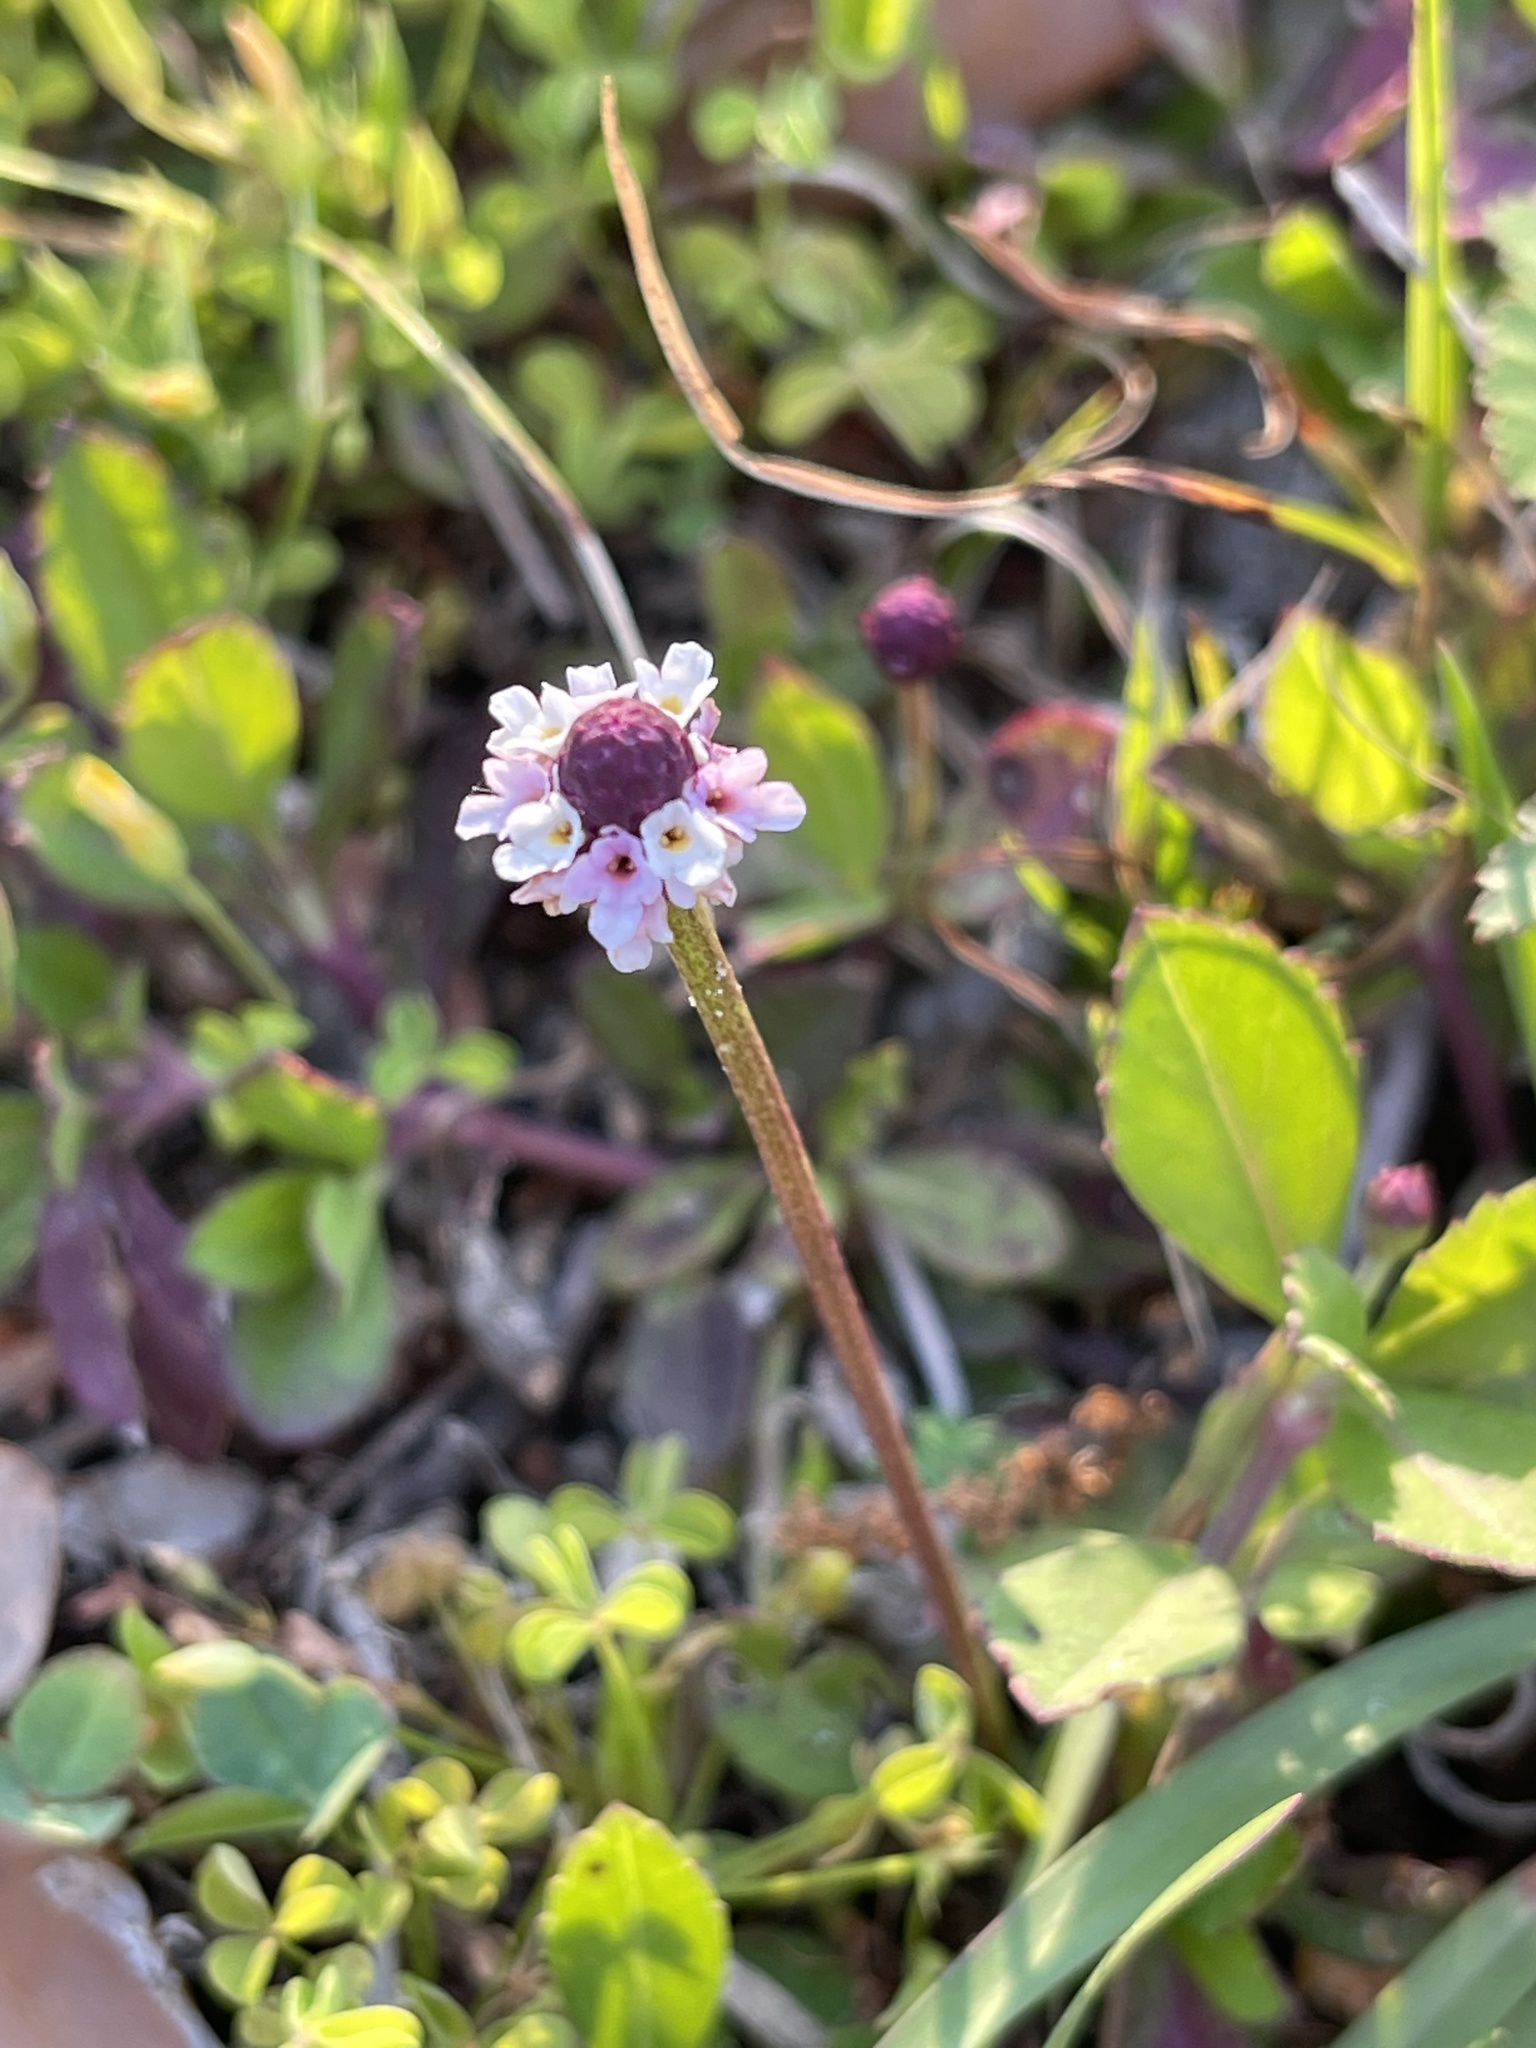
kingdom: Plantae
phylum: Tracheophyta
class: Magnoliopsida
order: Lamiales
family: Verbenaceae
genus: Phyla
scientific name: Phyla nodiflora
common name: Frogfruit
